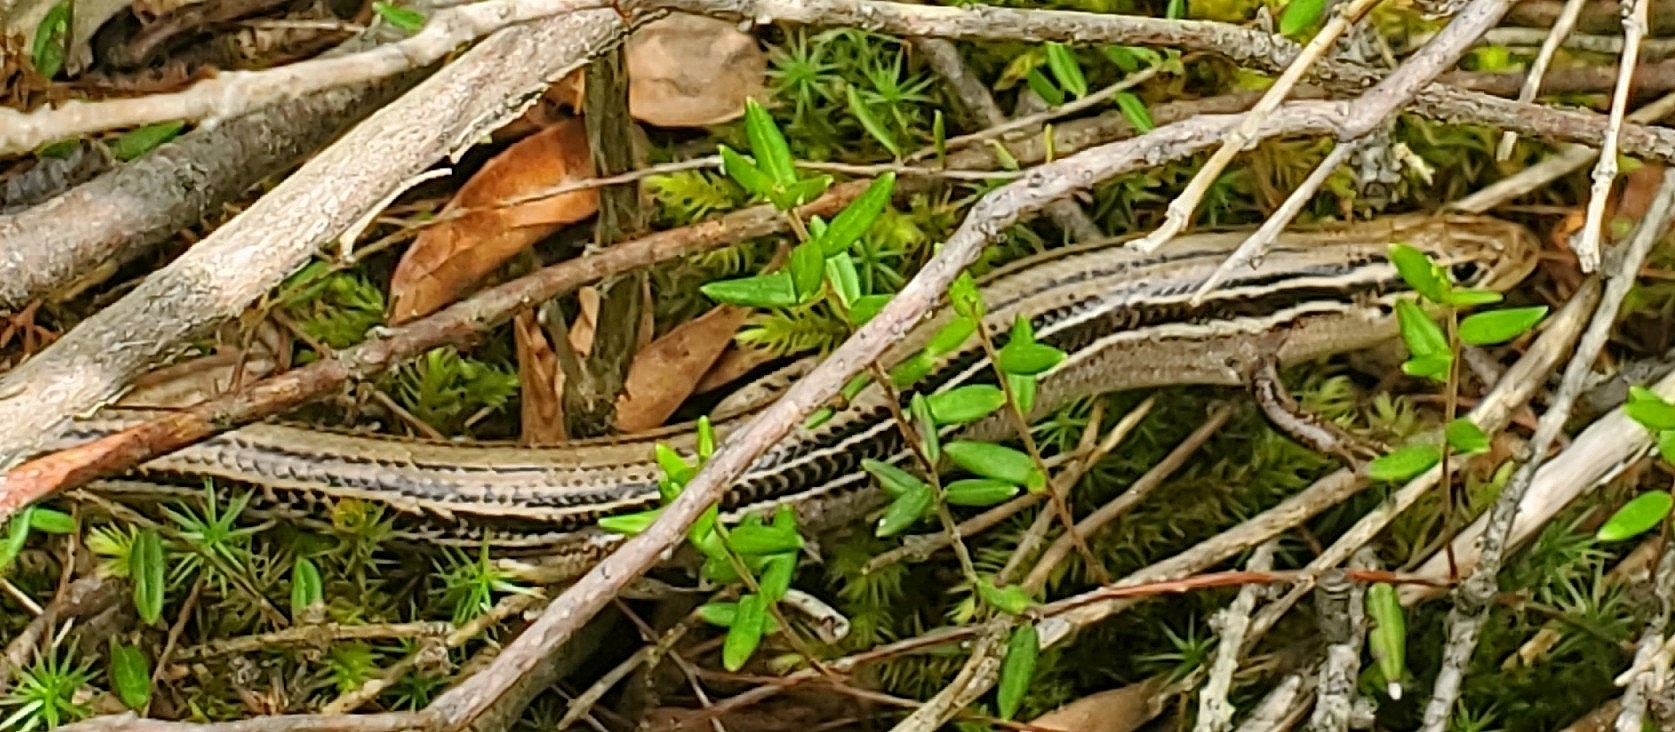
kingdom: Animalia
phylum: Chordata
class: Squamata
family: Scincidae
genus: Plestiodon
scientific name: Plestiodon septentrionalis
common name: Northern prairie skink
